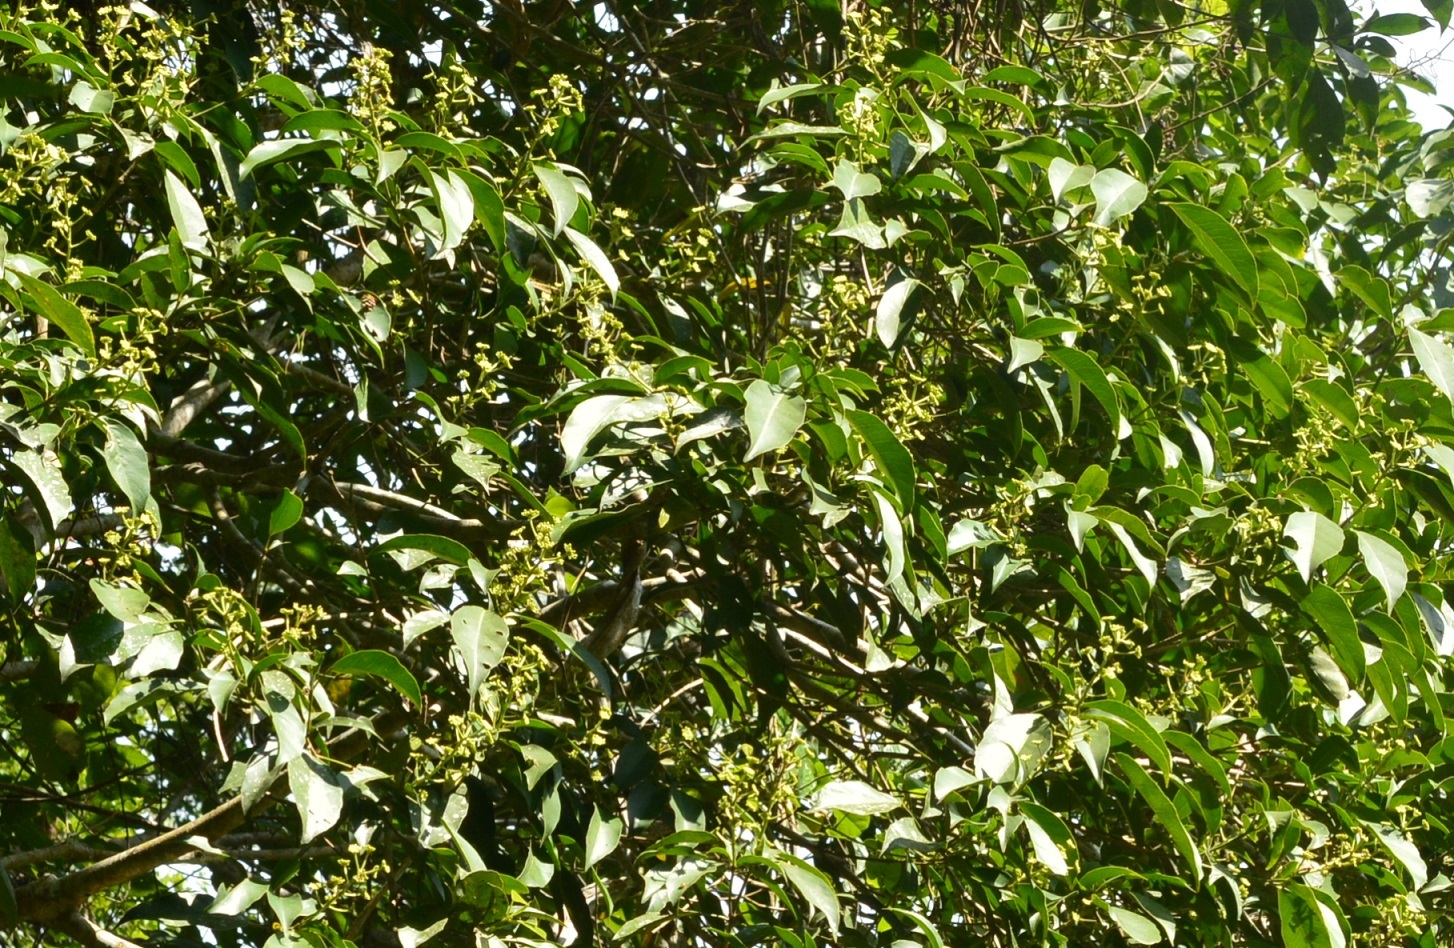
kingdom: Plantae
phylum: Tracheophyta
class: Magnoliopsida
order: Apiales
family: Araliaceae
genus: Dendropanax
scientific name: Dendropanax arboreus
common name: Potato-wood
